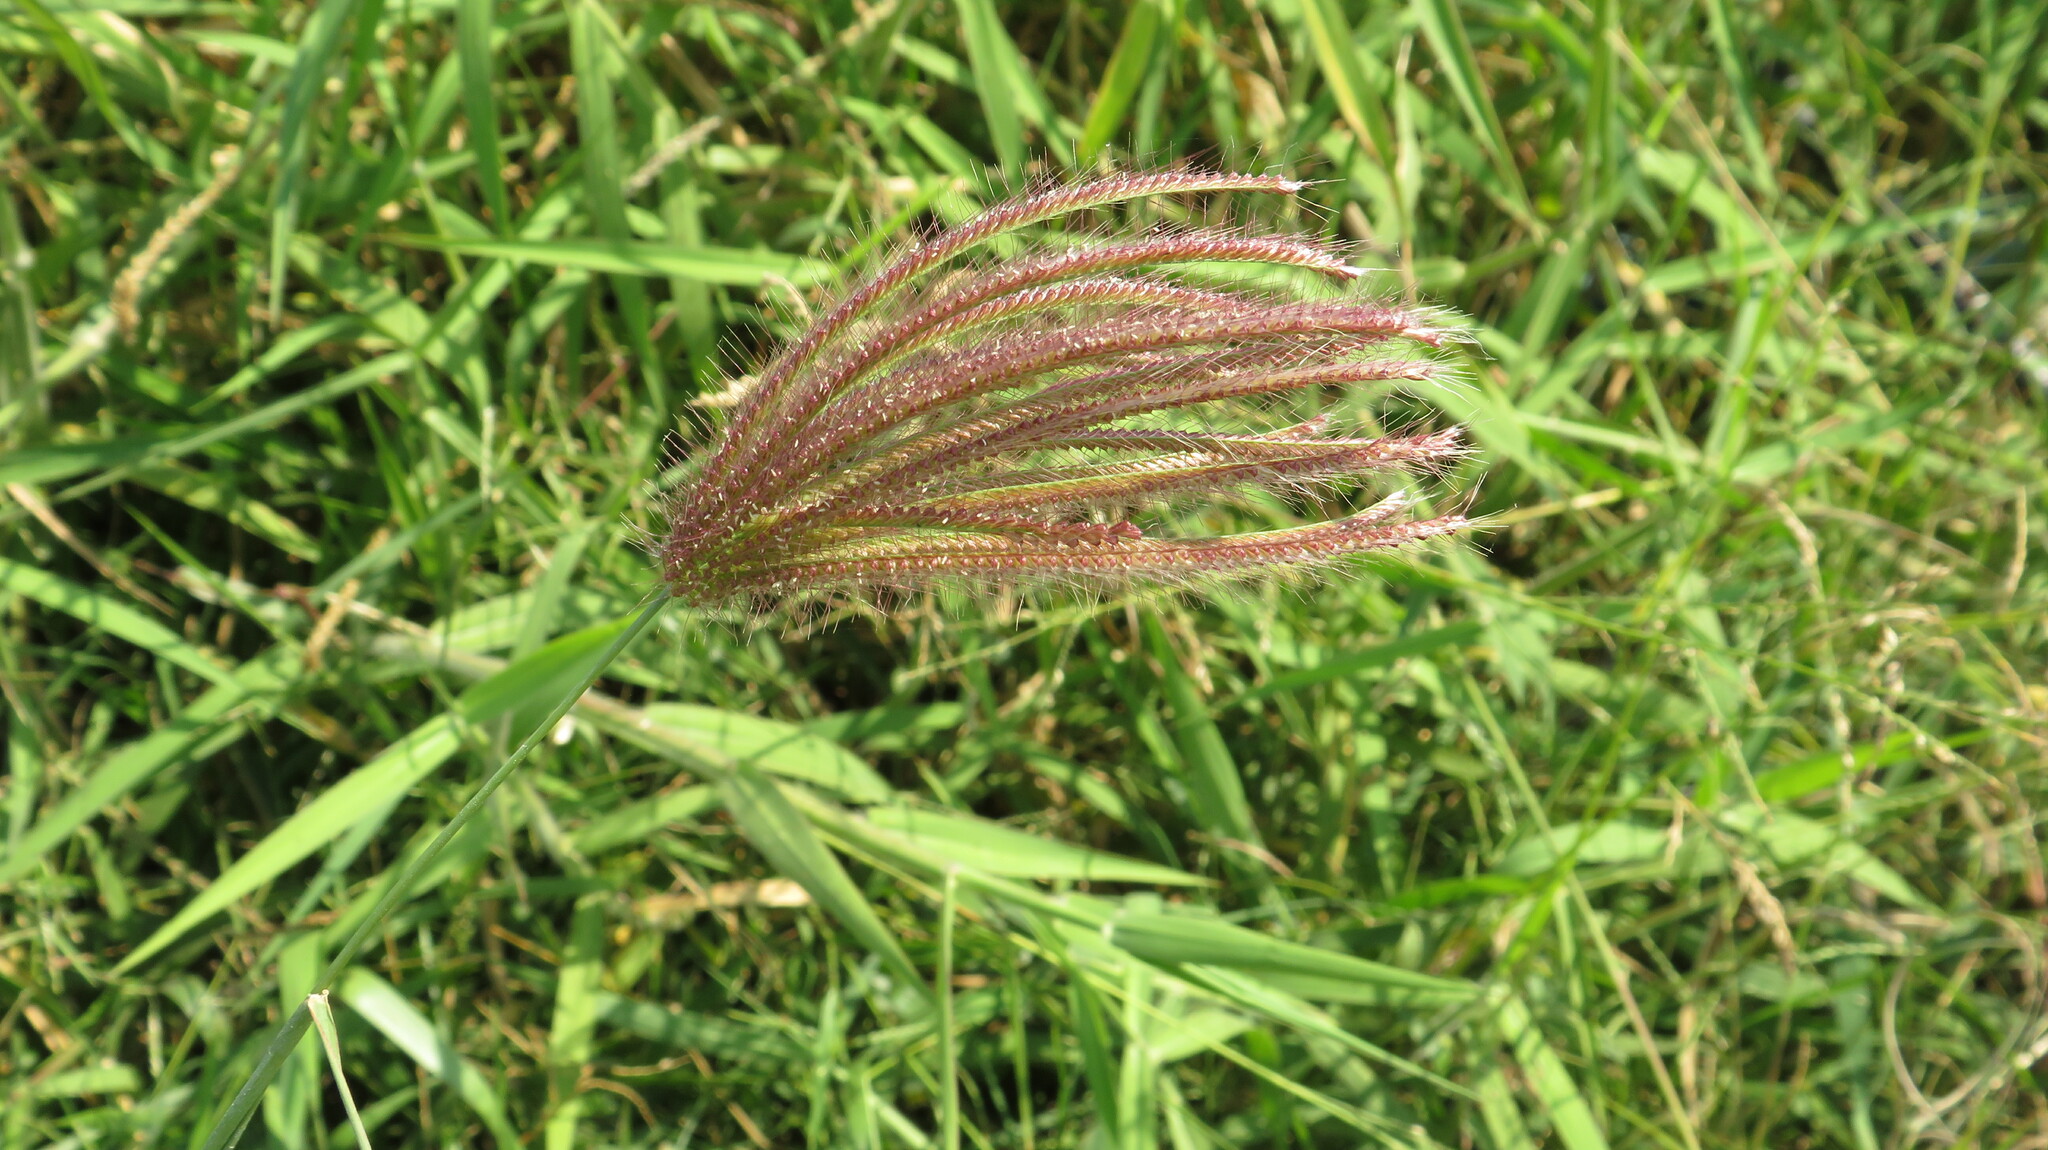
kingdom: Plantae
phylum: Tracheophyta
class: Liliopsida
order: Poales
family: Poaceae
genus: Chloris
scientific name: Chloris barbata
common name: Swollen fingergrass
